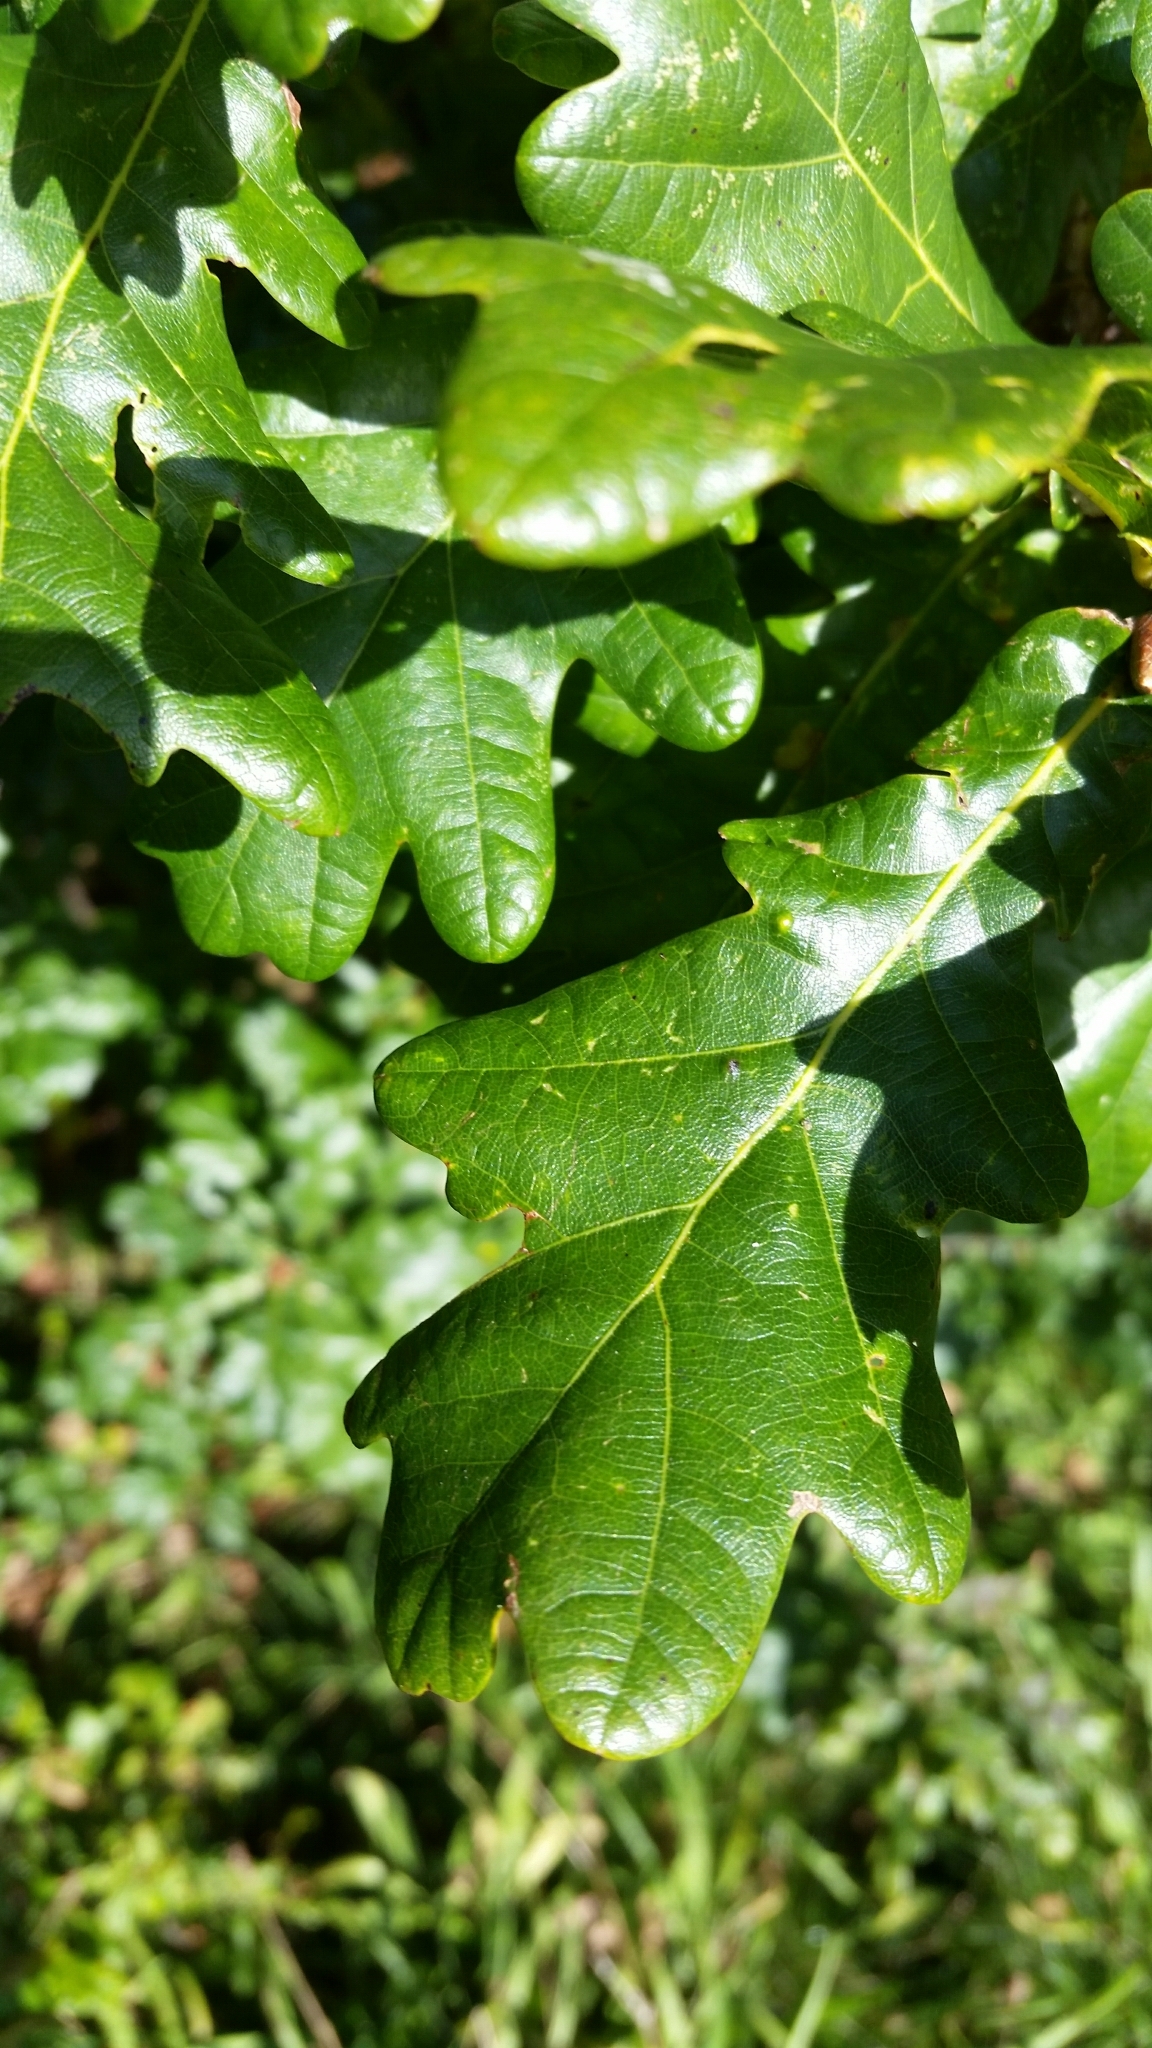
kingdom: Animalia
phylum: Arthropoda
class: Insecta
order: Hemiptera
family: Triozidae
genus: Trioza
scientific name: Trioza remota
